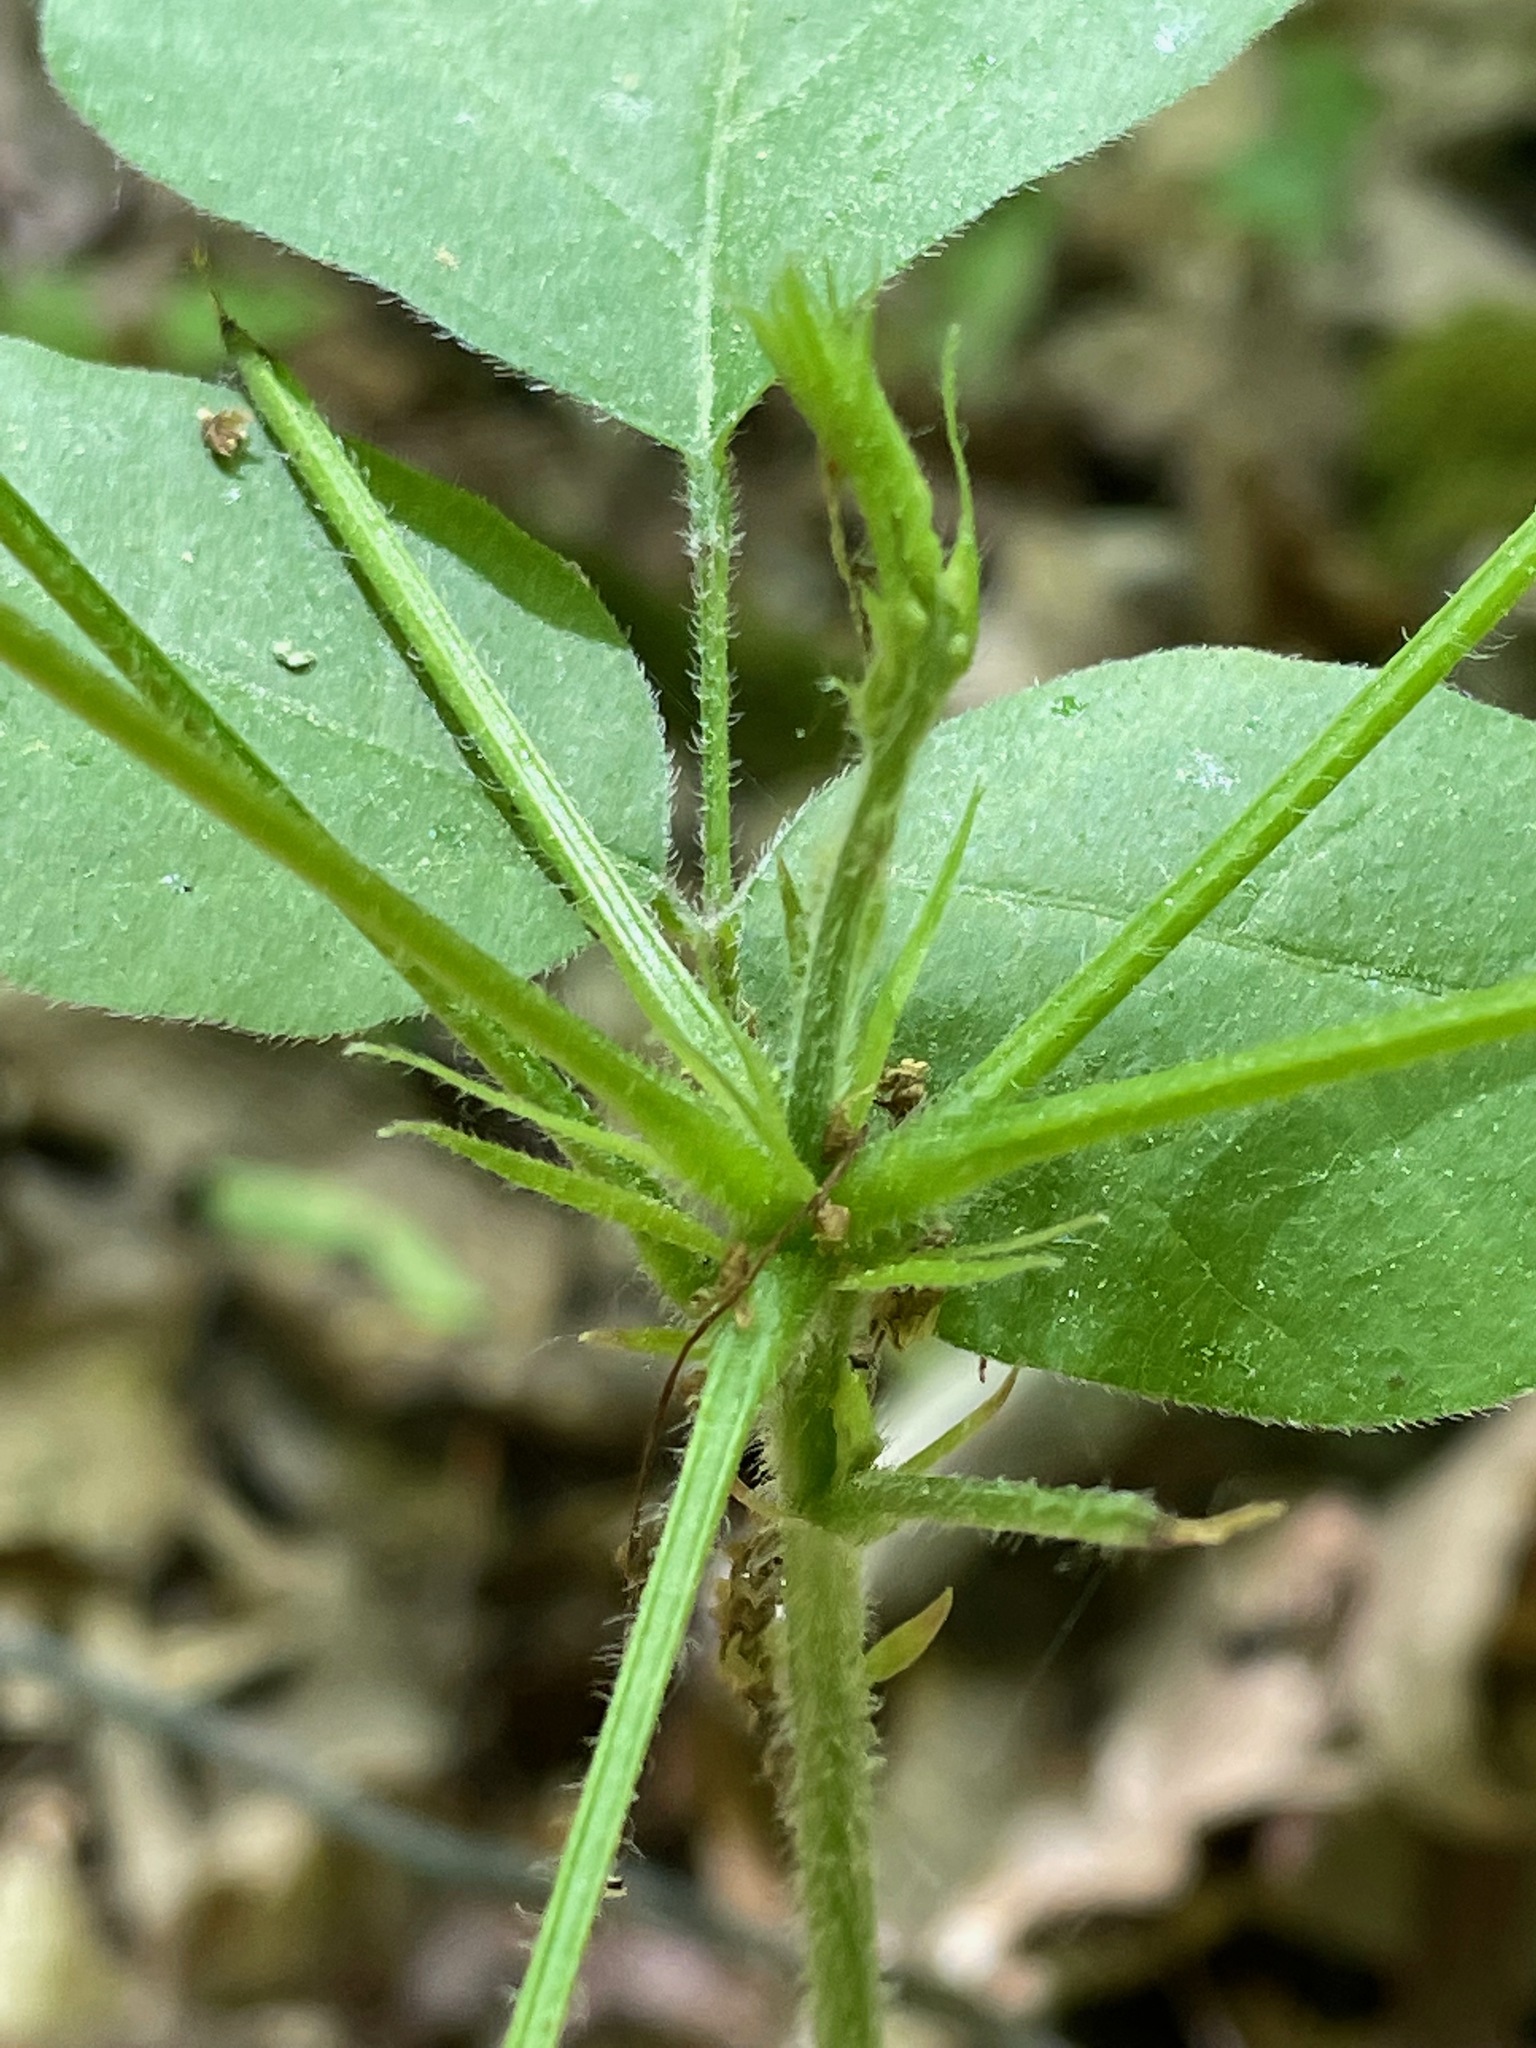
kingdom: Plantae
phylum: Tracheophyta
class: Magnoliopsida
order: Fabales
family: Fabaceae
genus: Hylodesmum
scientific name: Hylodesmum glutinosum
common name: Clustered-leaved tick-trefoil
